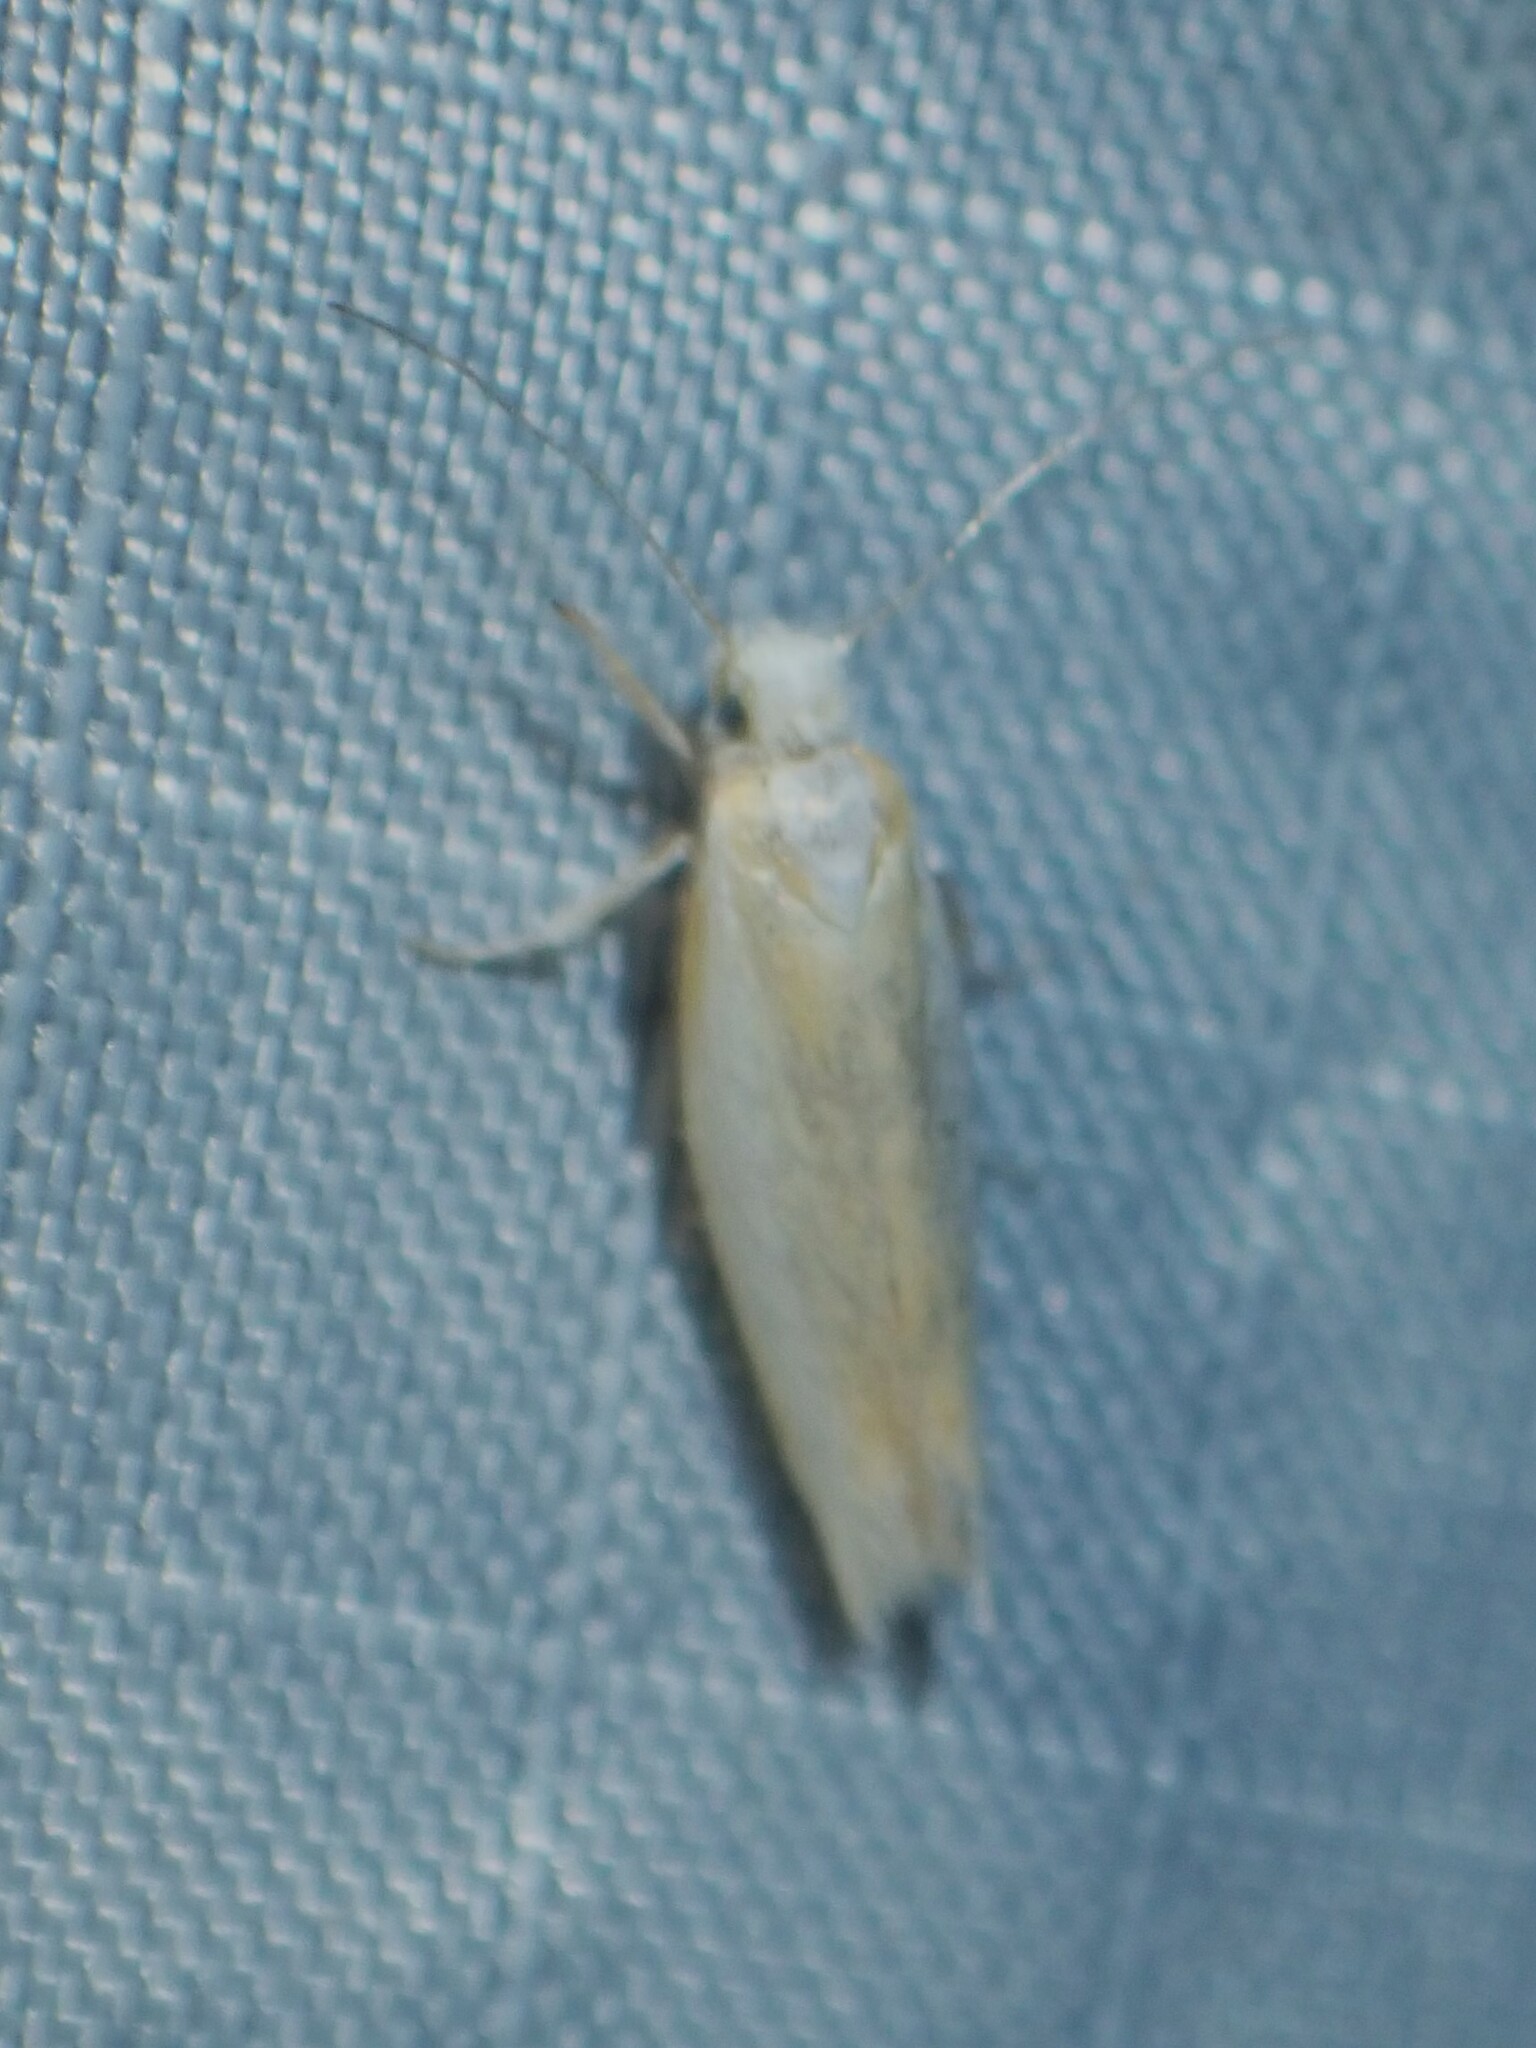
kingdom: Animalia
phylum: Arthropoda
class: Insecta
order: Lepidoptera
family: Yponomeutidae
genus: Zelleria
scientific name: Zelleria haimbachi
